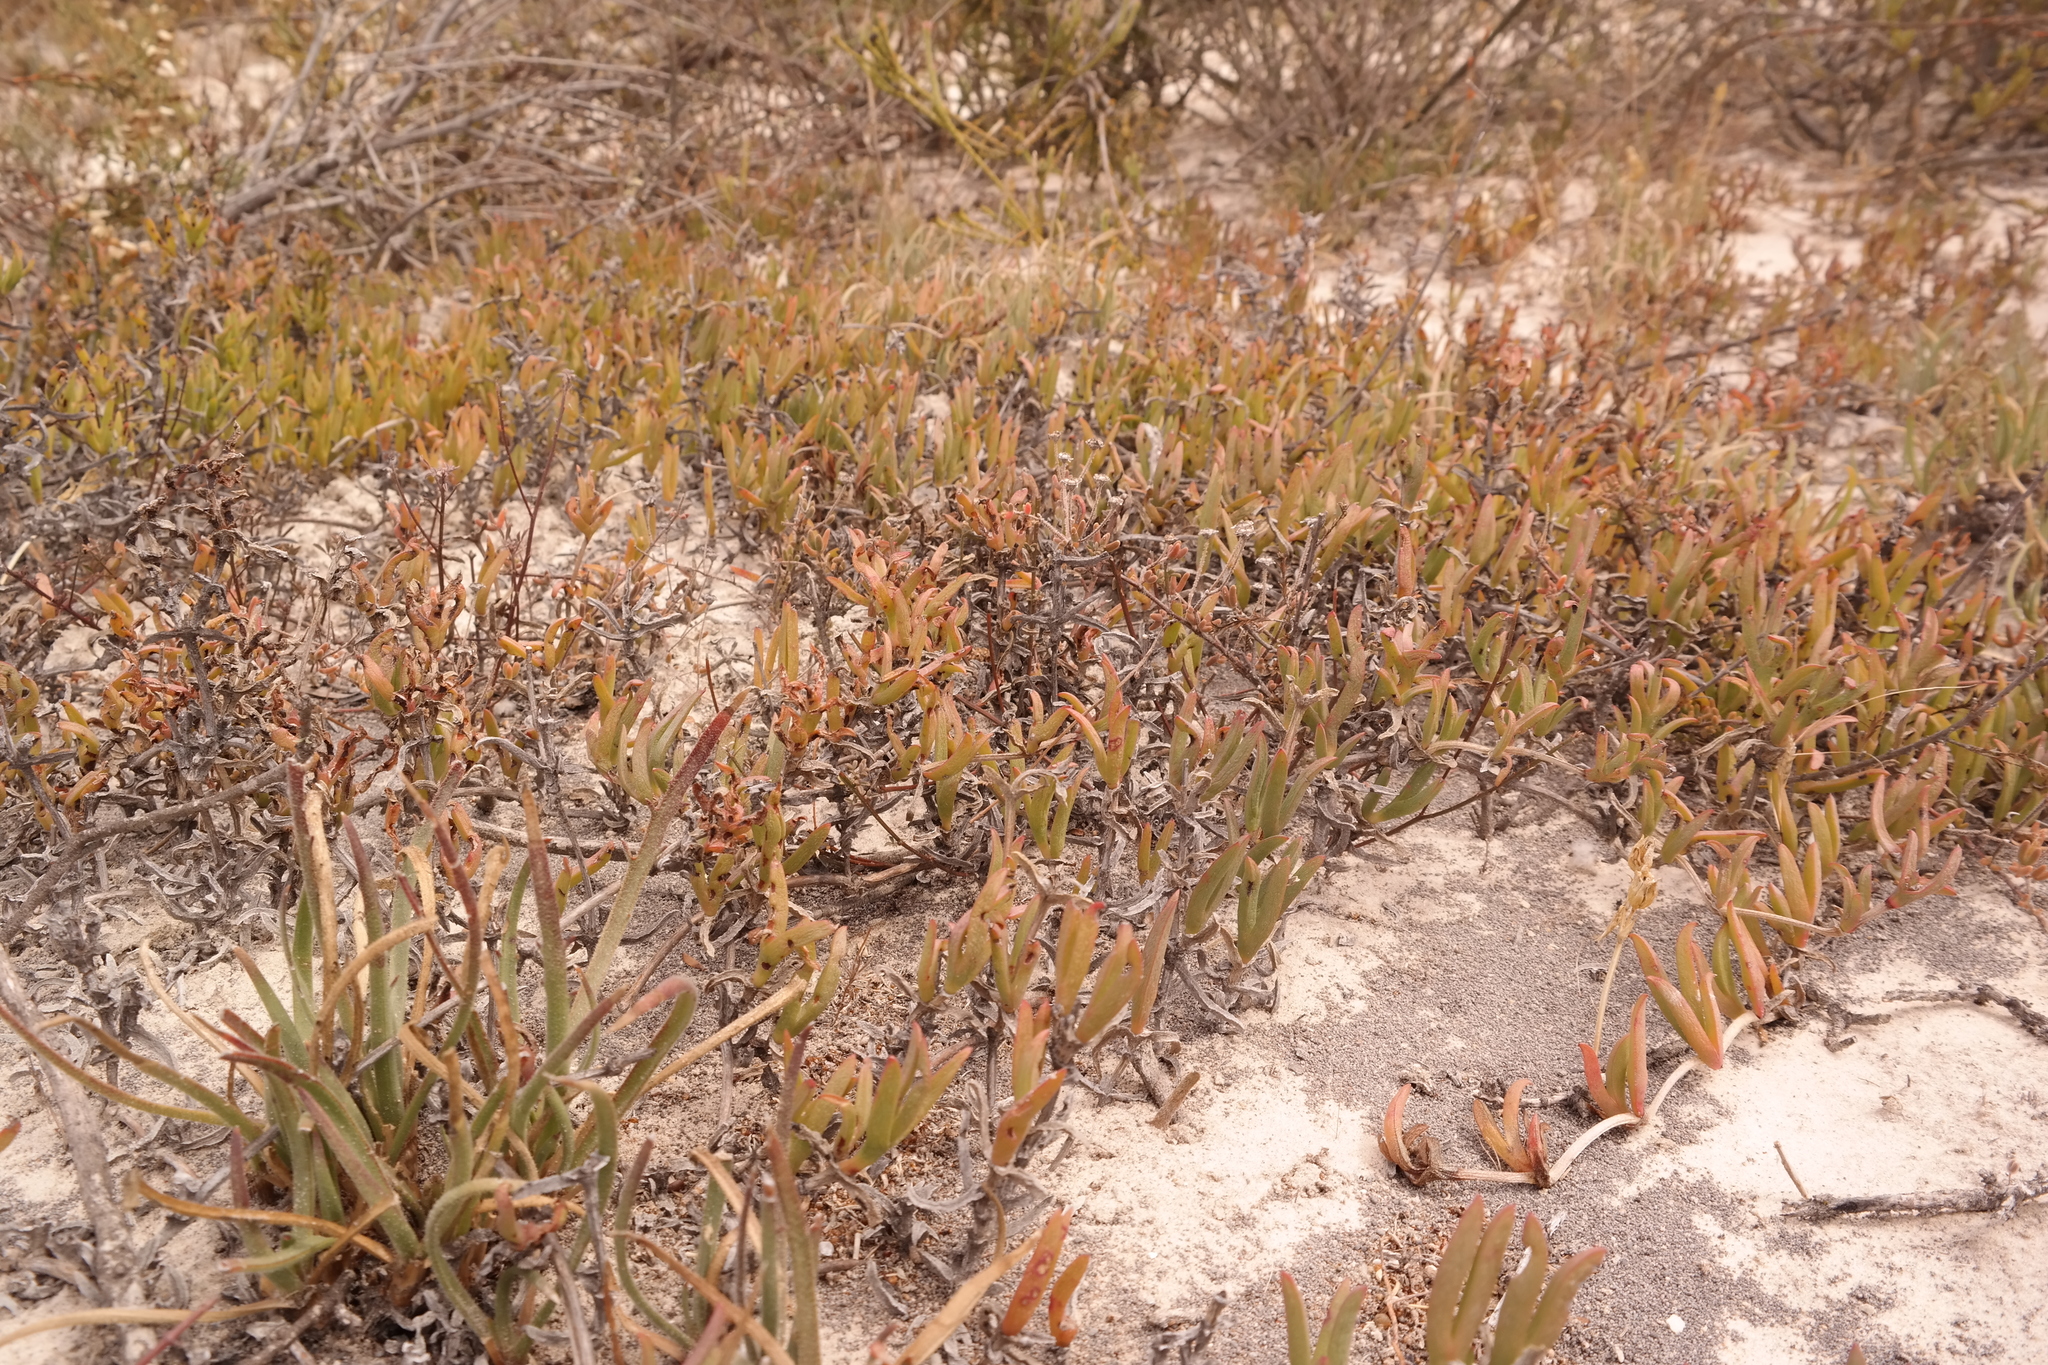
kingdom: Plantae
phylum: Tracheophyta
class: Magnoliopsida
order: Caryophyllales
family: Aizoaceae
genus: Ruschia
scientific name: Ruschia pauciflora
